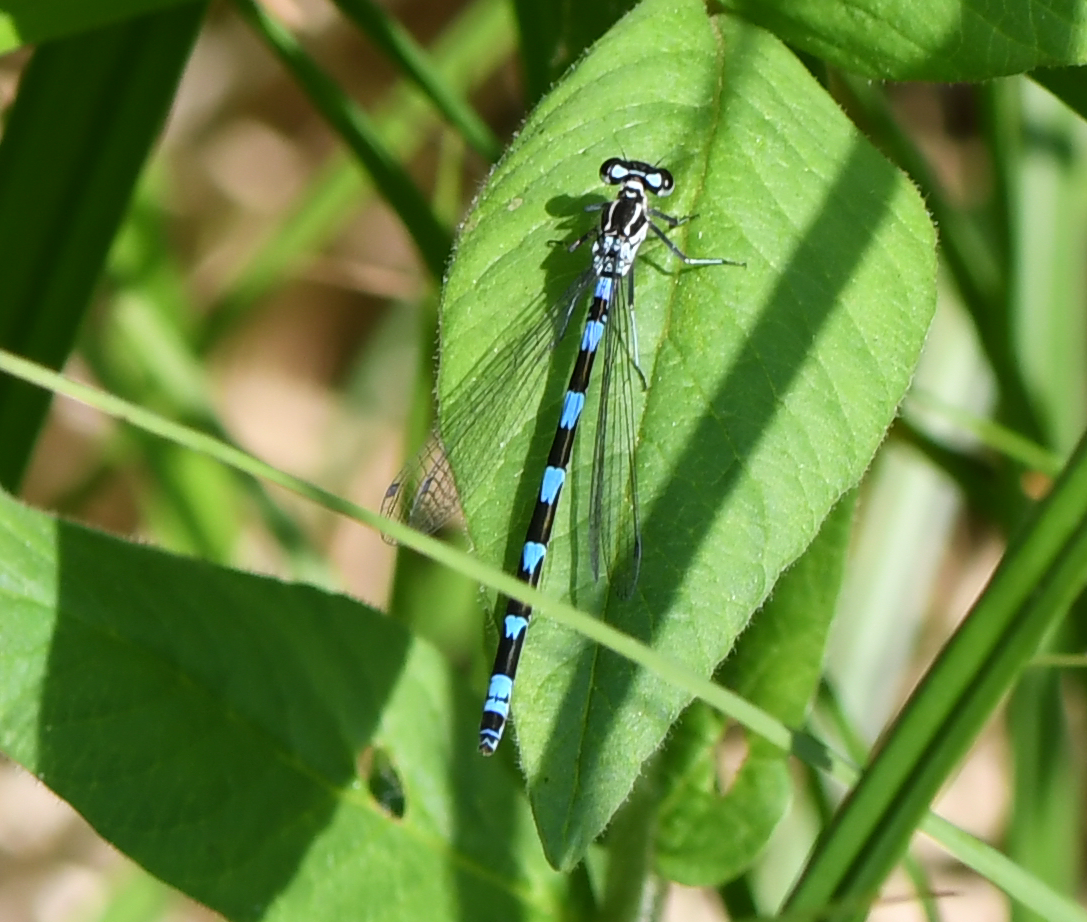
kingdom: Animalia
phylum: Arthropoda
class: Insecta
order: Odonata
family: Coenagrionidae
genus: Coenagrion
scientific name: Coenagrion pulchellum
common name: Variable bluet
